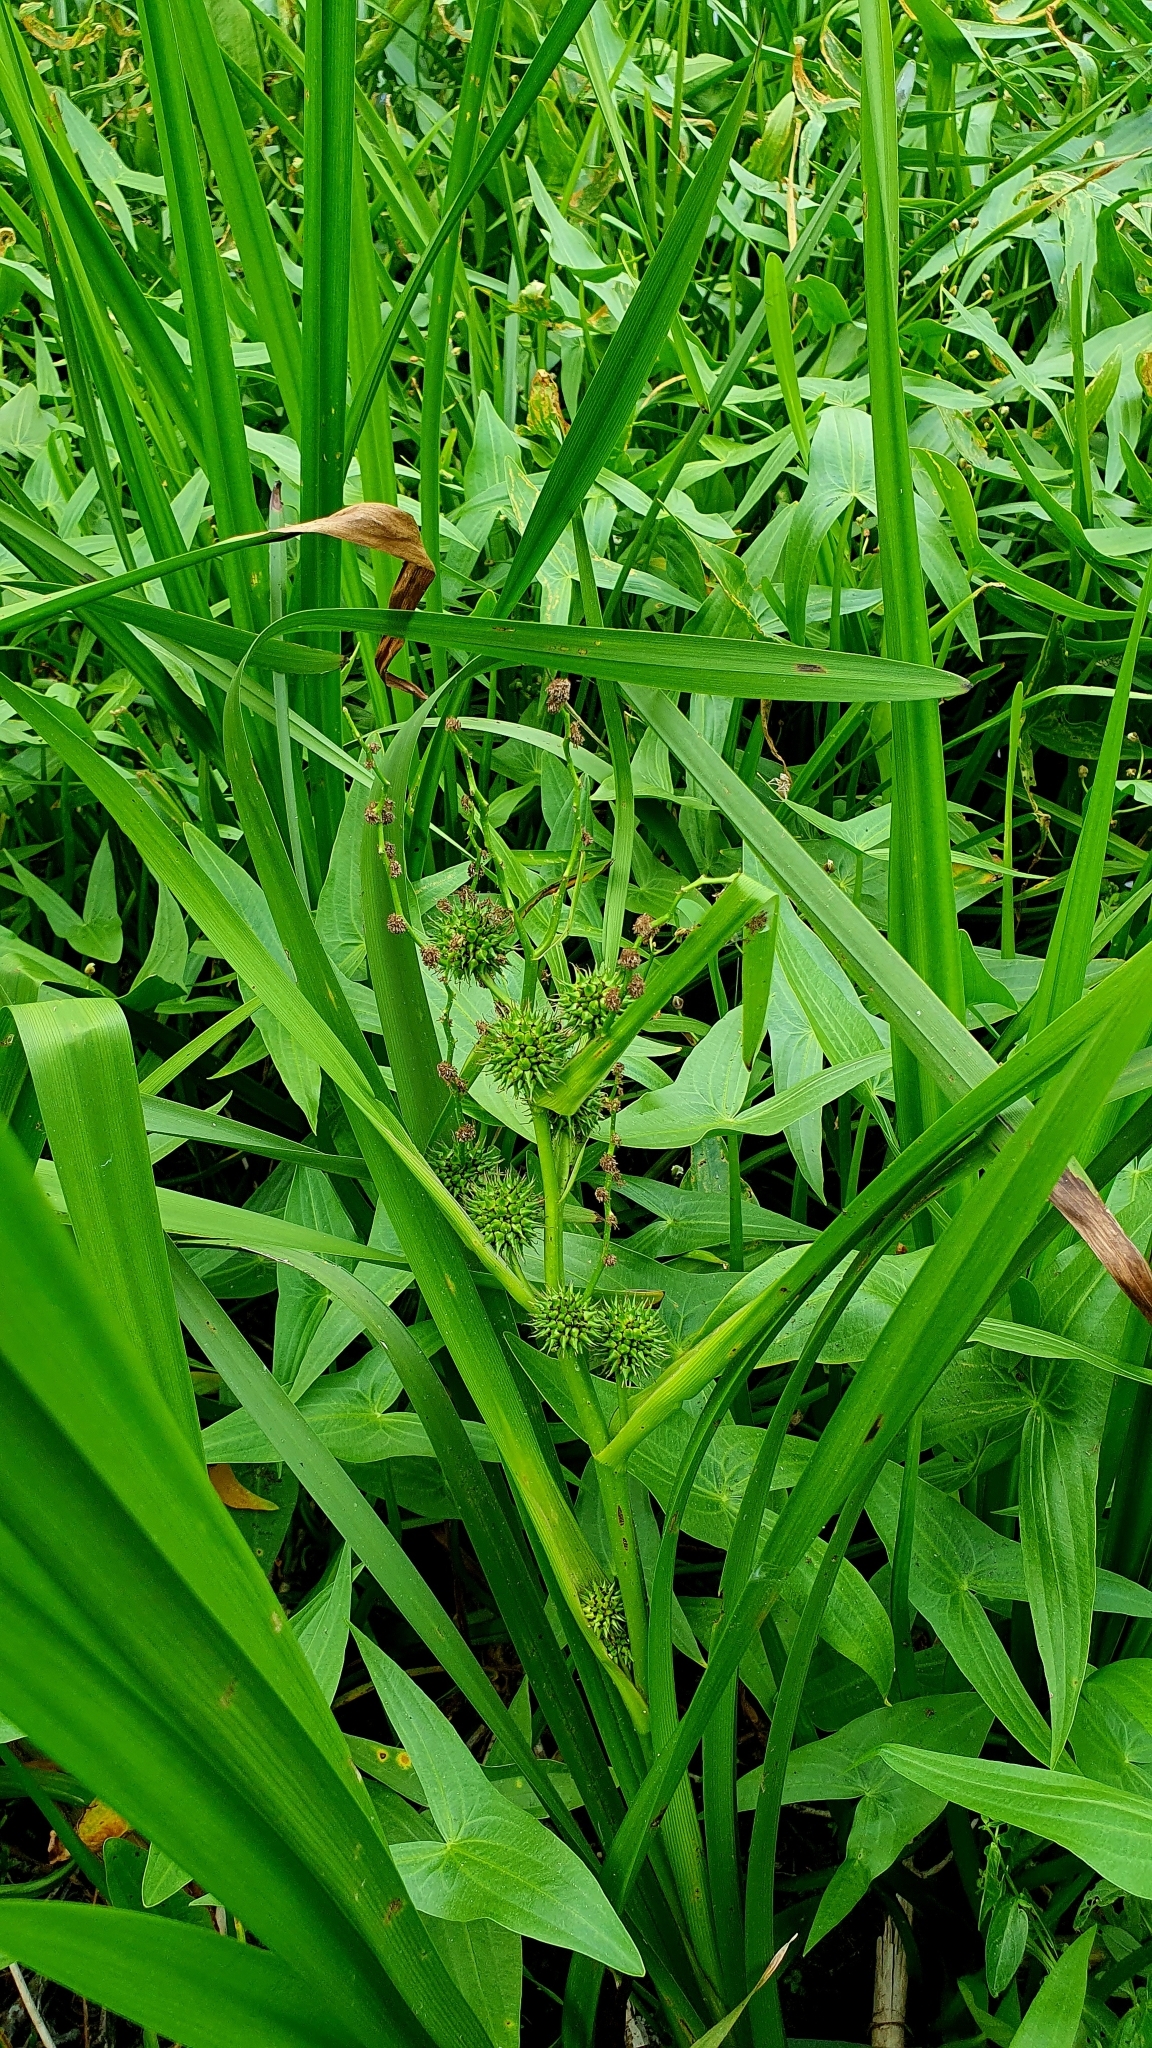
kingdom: Plantae
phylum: Tracheophyta
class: Liliopsida
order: Poales
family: Typhaceae
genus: Sparganium
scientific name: Sparganium erectum
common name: Branched bur-reed
